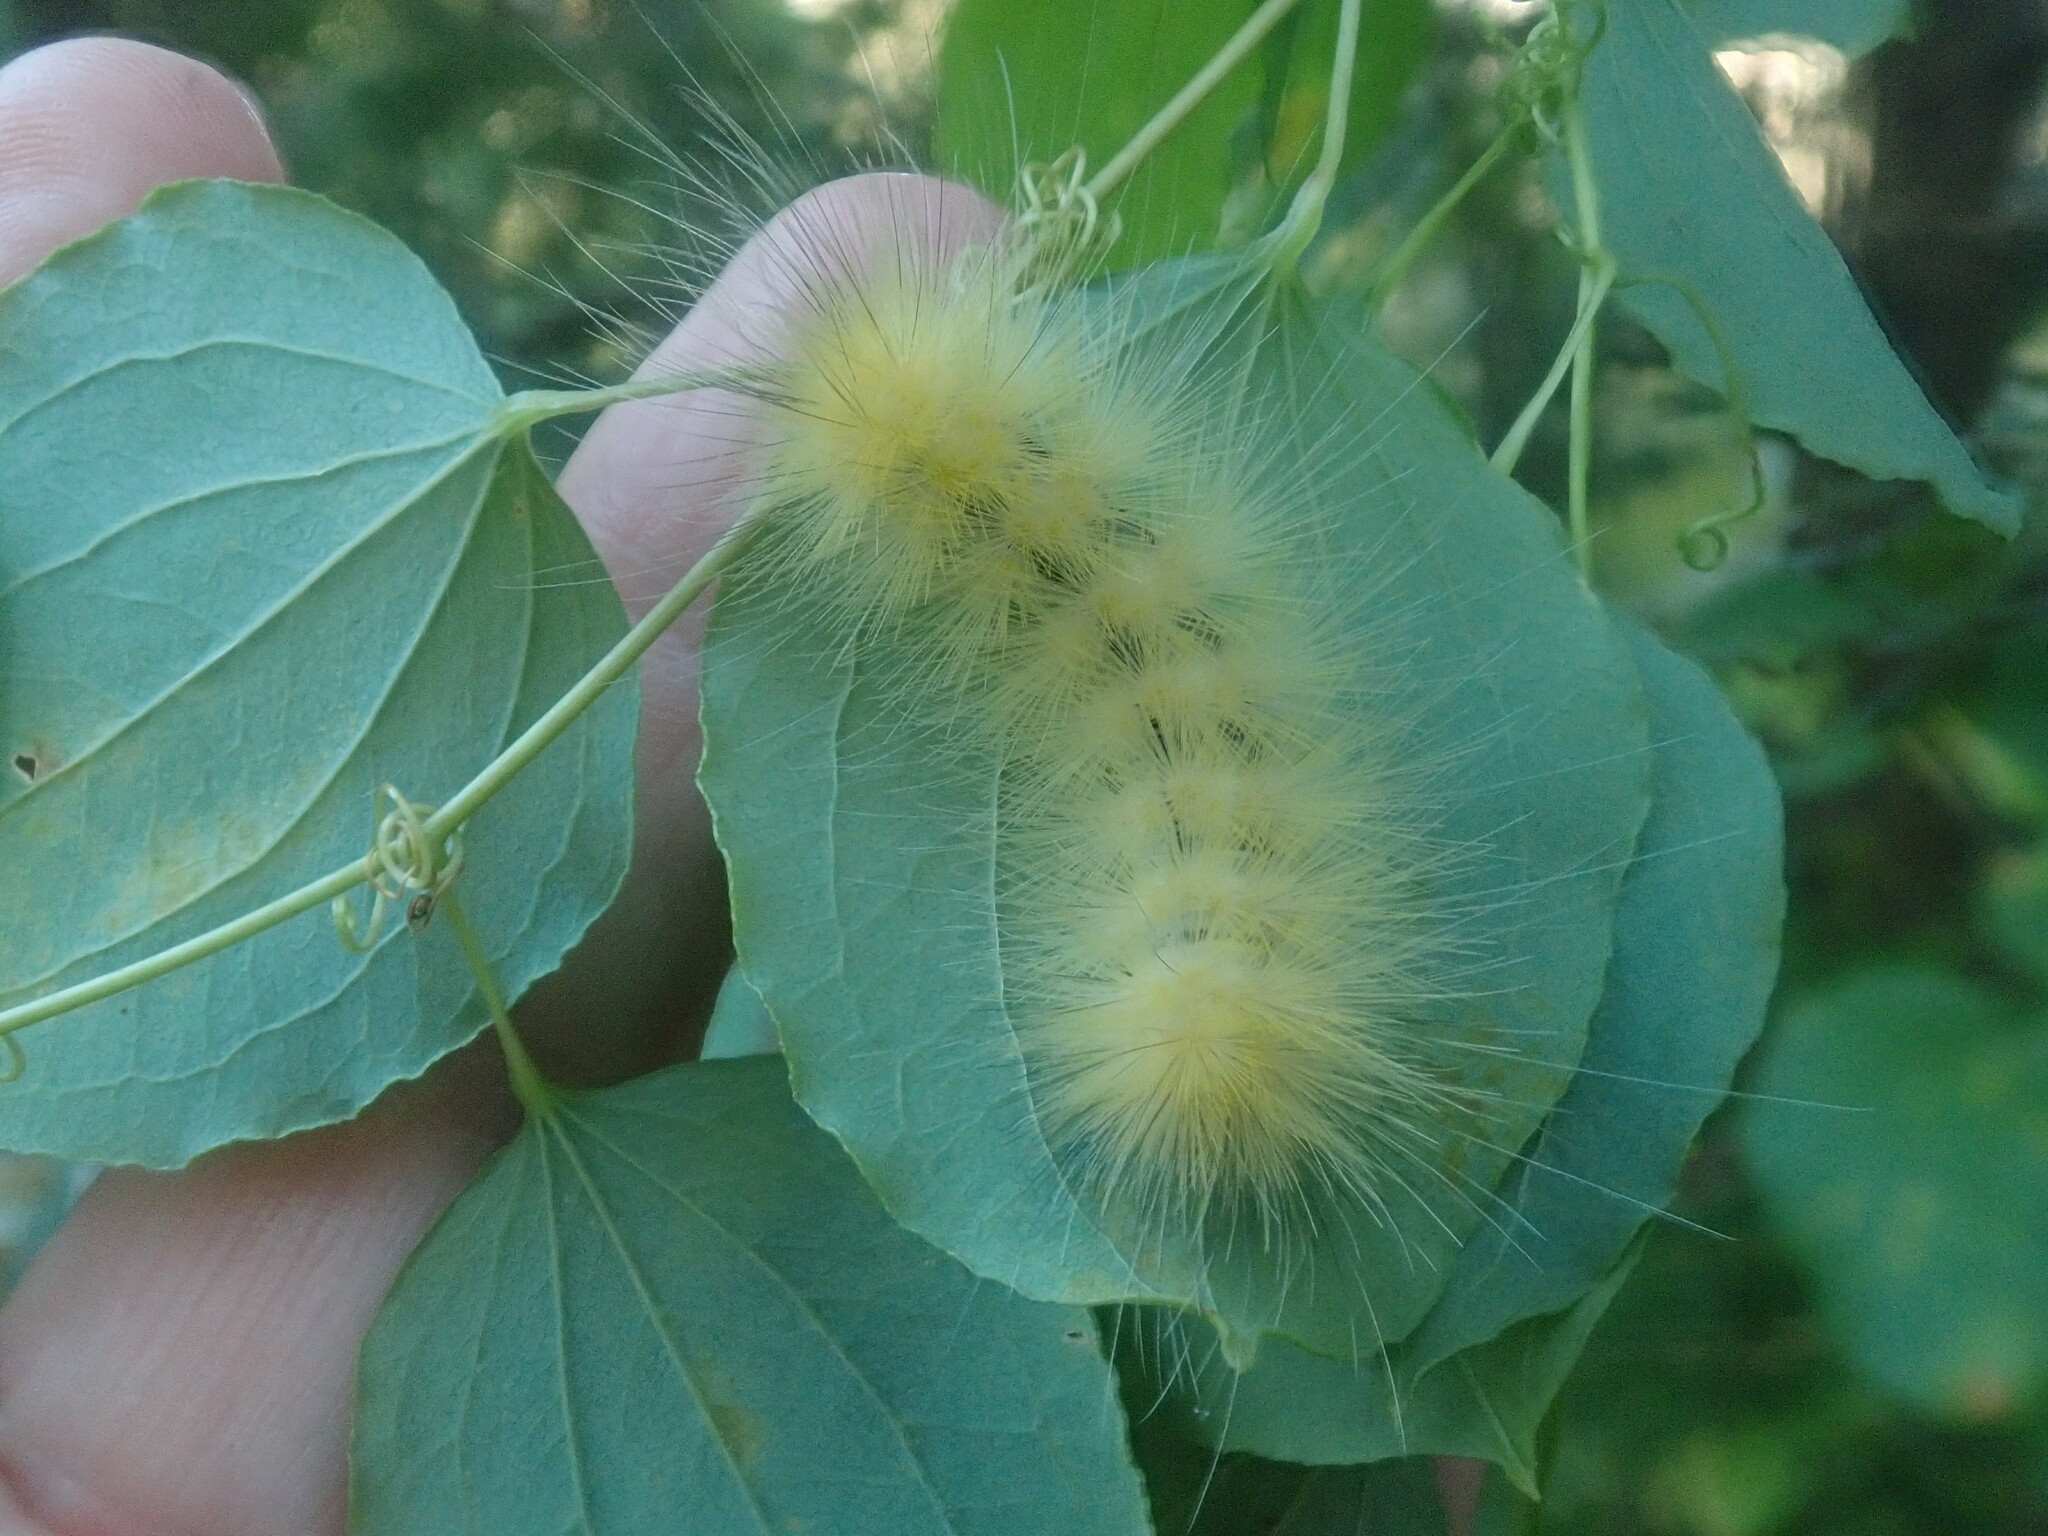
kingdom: Animalia
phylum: Arthropoda
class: Insecta
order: Lepidoptera
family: Erebidae
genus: Spilosoma
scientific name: Spilosoma virginica
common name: Virginia tiger moth
